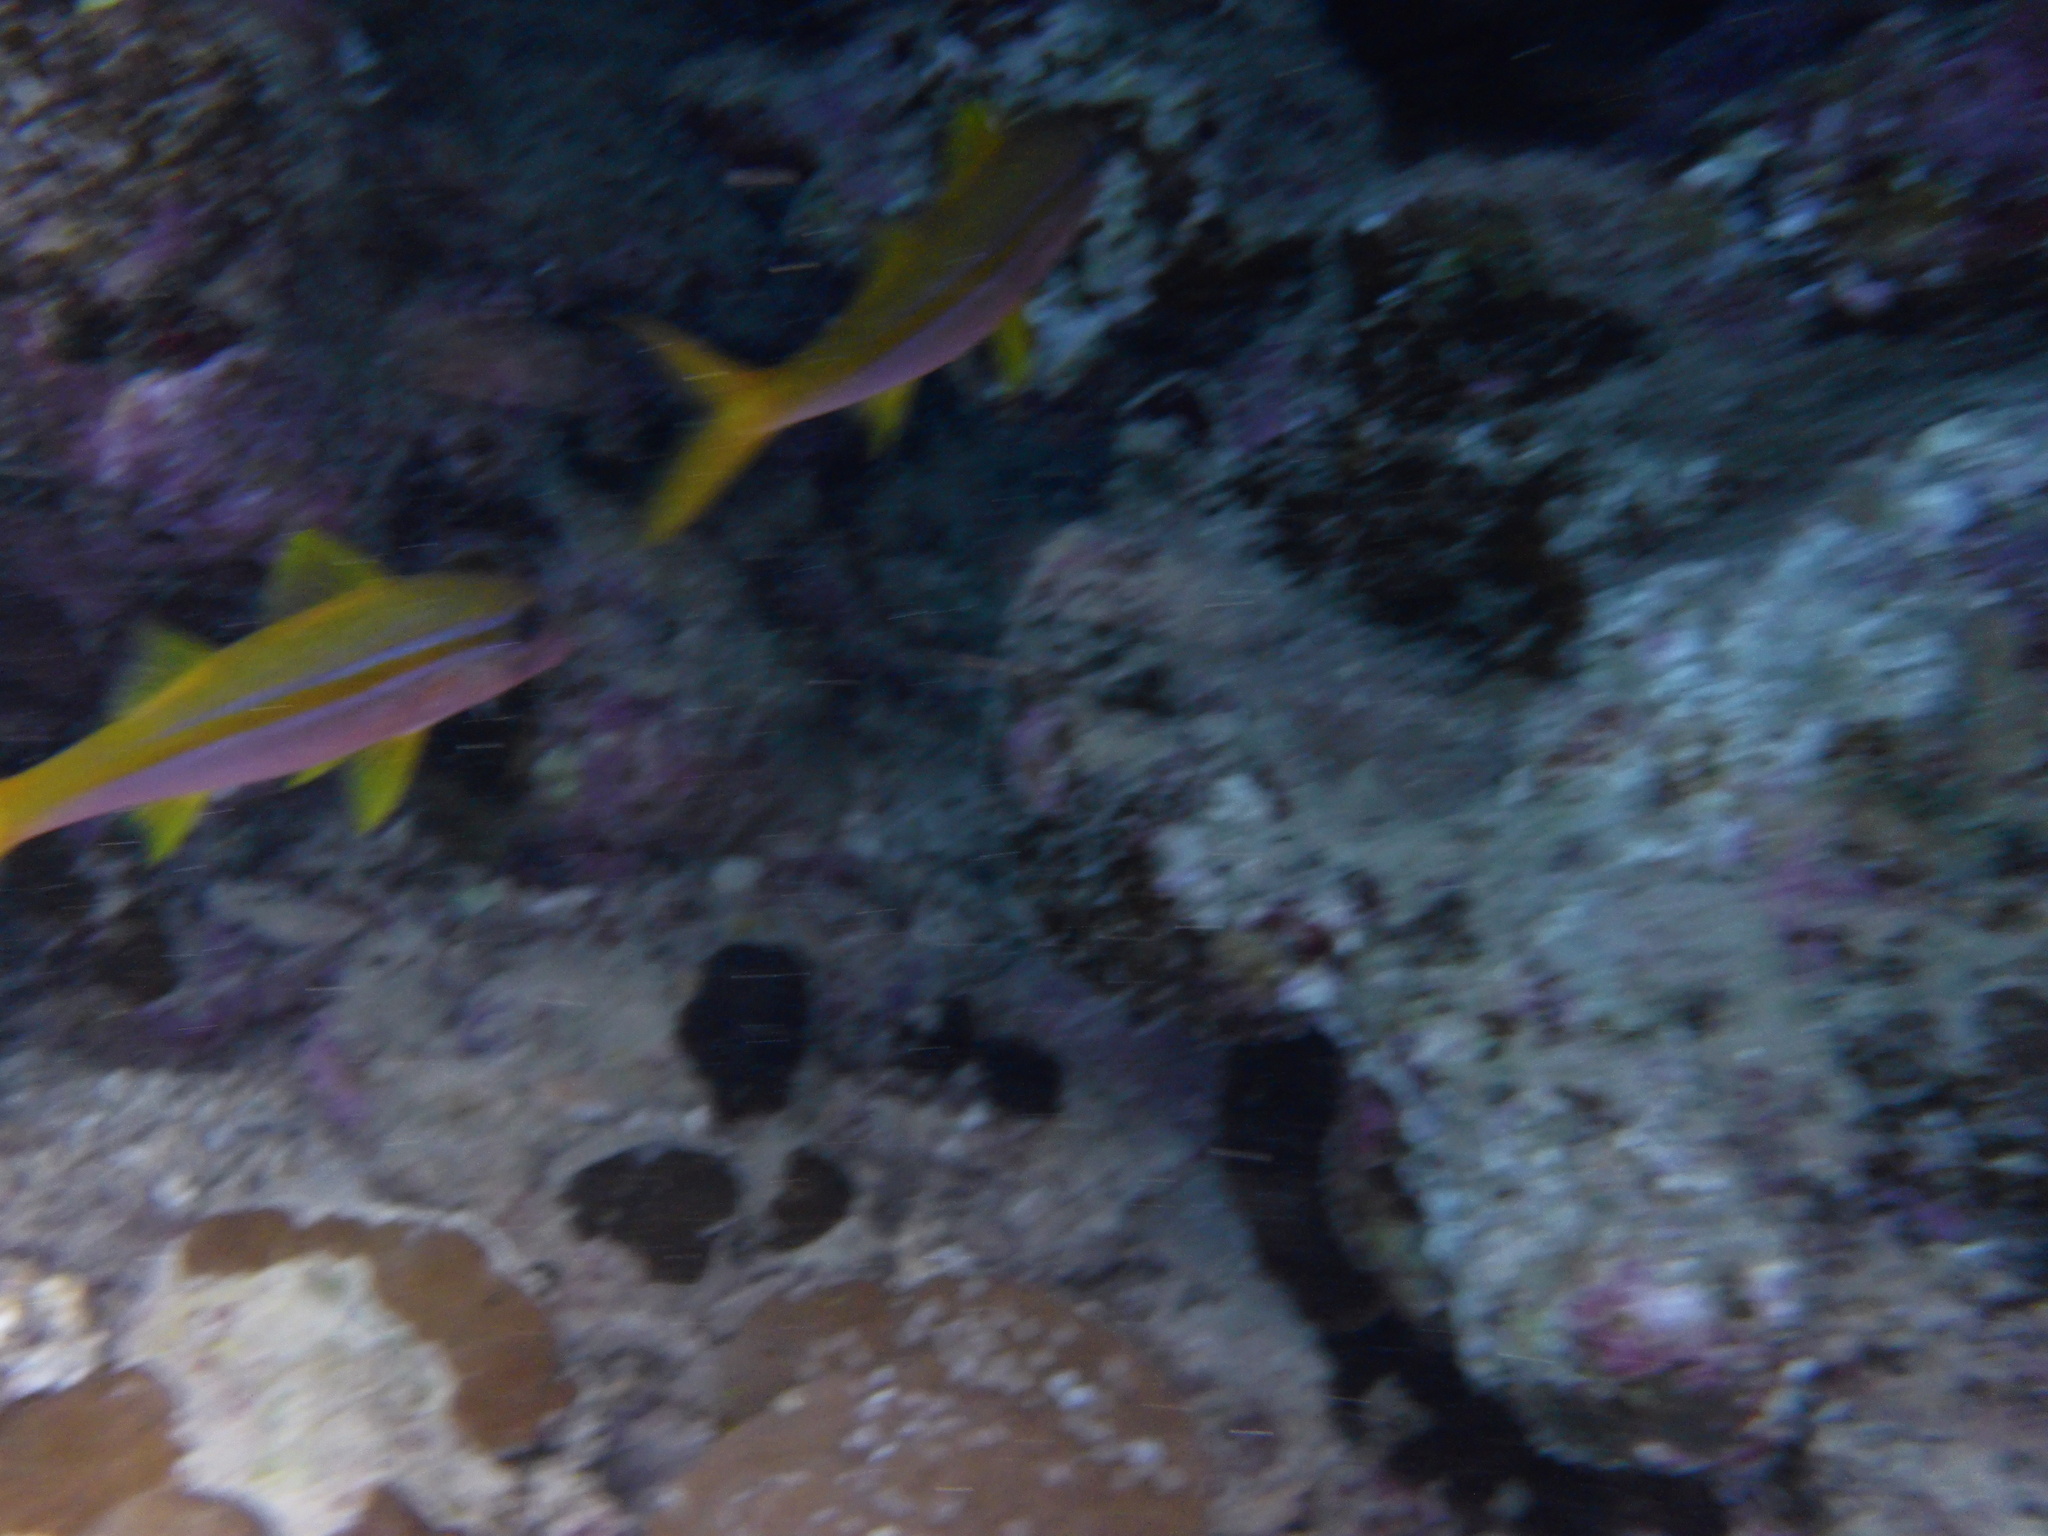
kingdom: Animalia
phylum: Chordata
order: Perciformes
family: Mullidae
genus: Mulloidichthys
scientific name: Mulloidichthys vanicolensis
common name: Yellowfin goatfish
